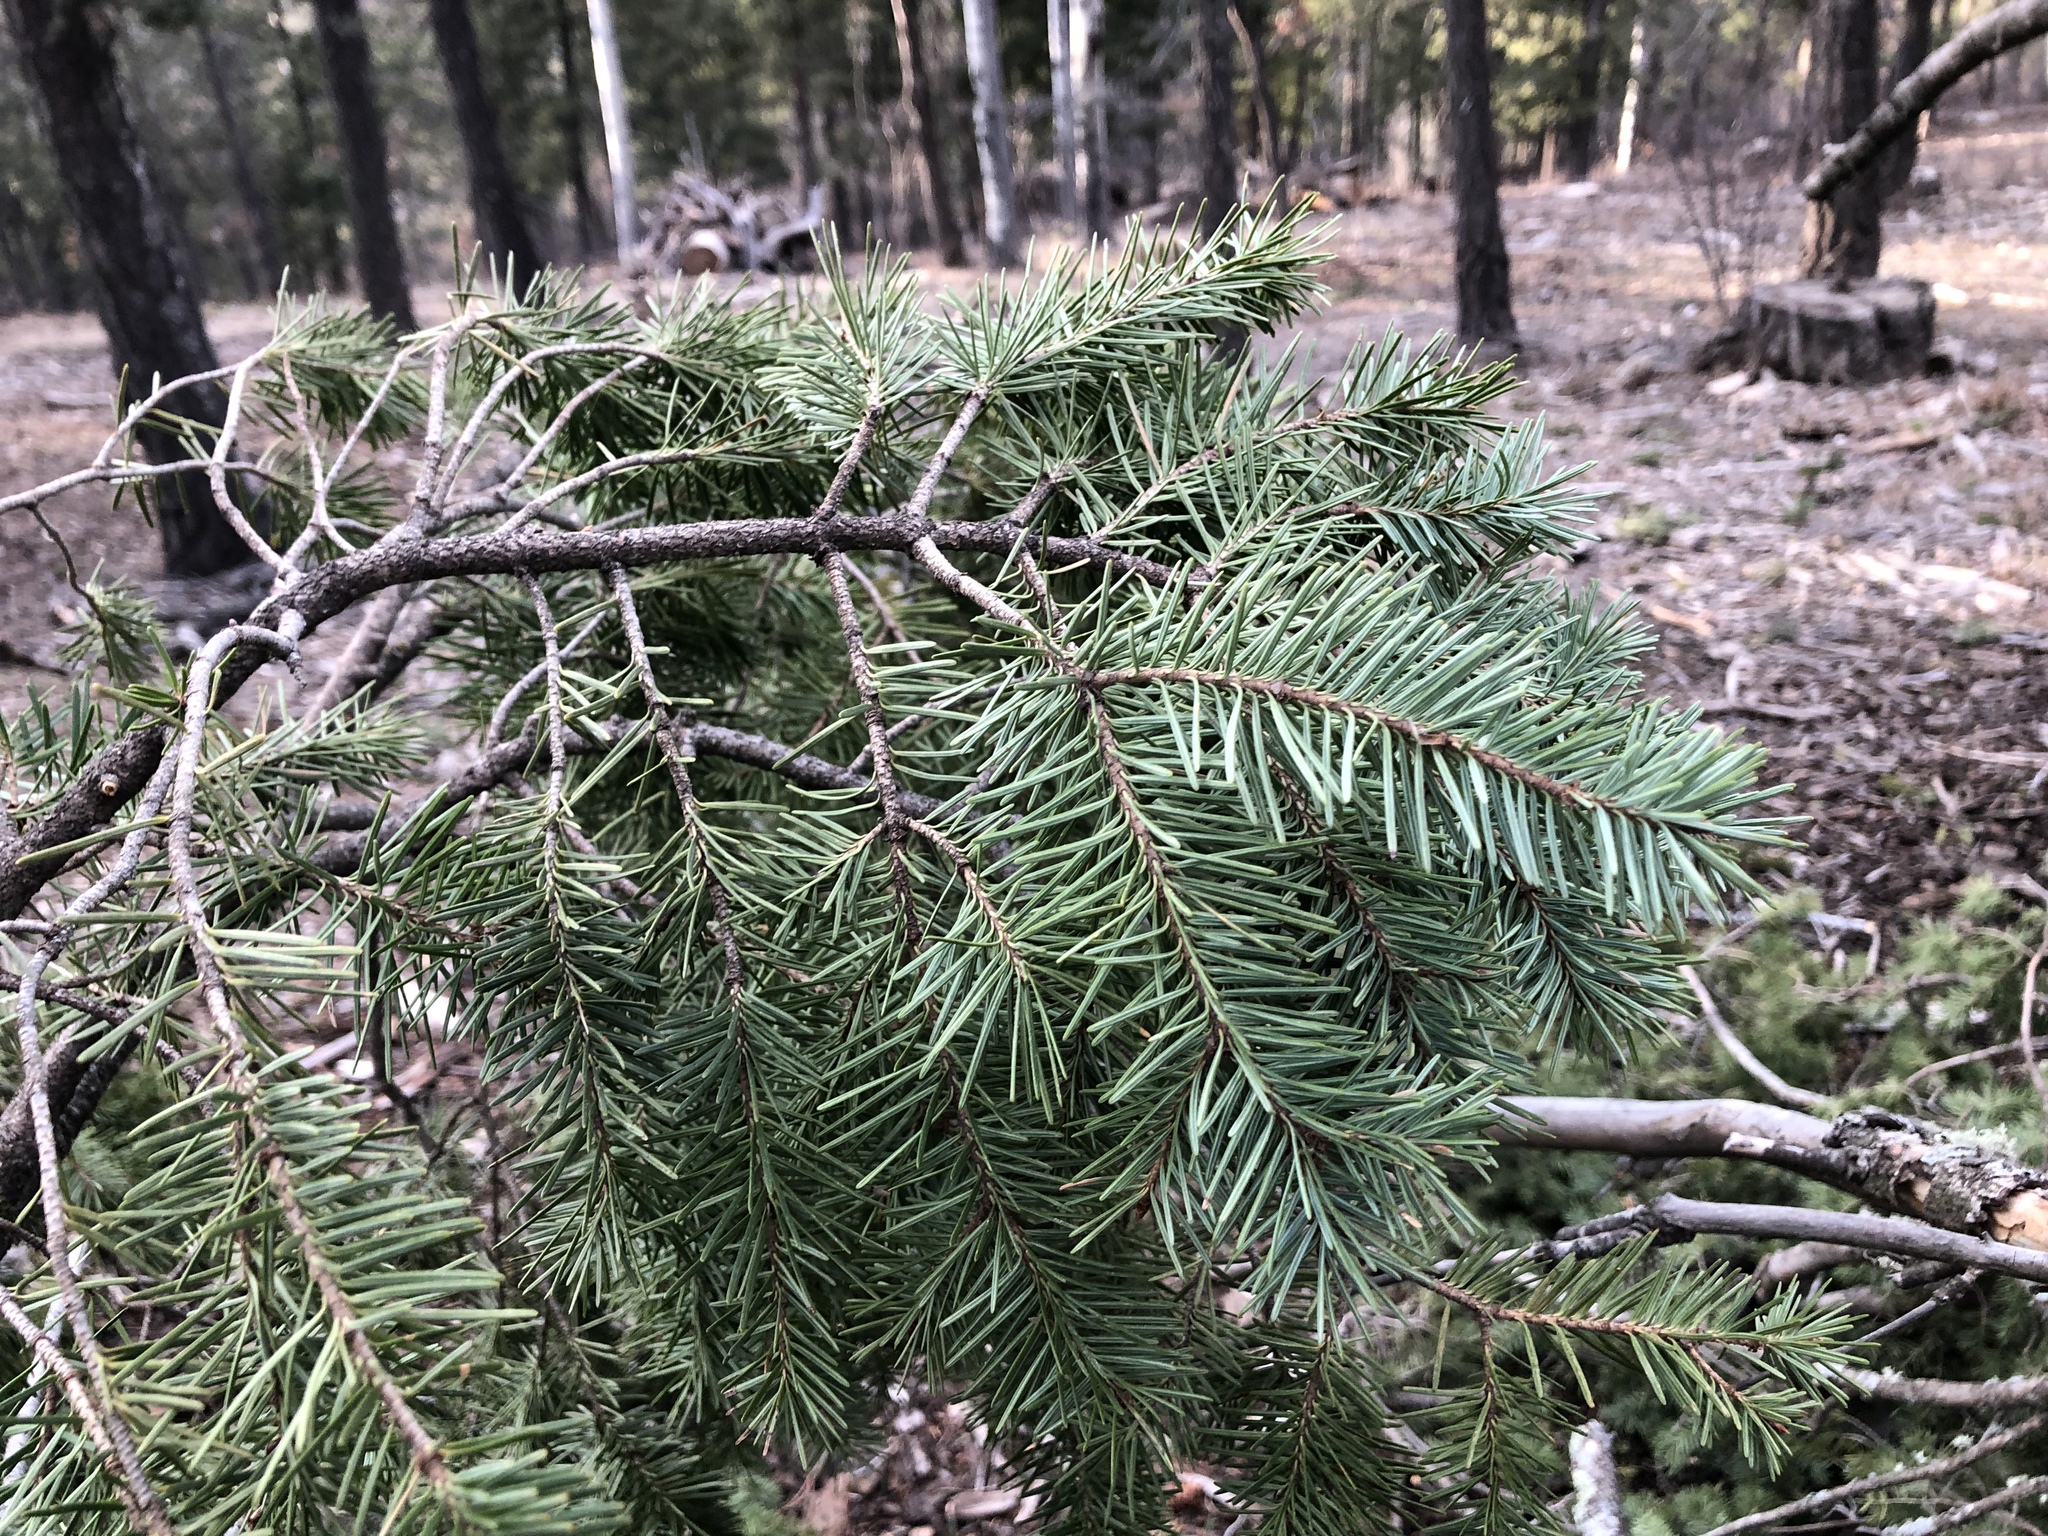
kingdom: Plantae
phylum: Tracheophyta
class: Pinopsida
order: Pinales
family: Pinaceae
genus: Pseudotsuga
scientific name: Pseudotsuga menziesii
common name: Douglas fir
